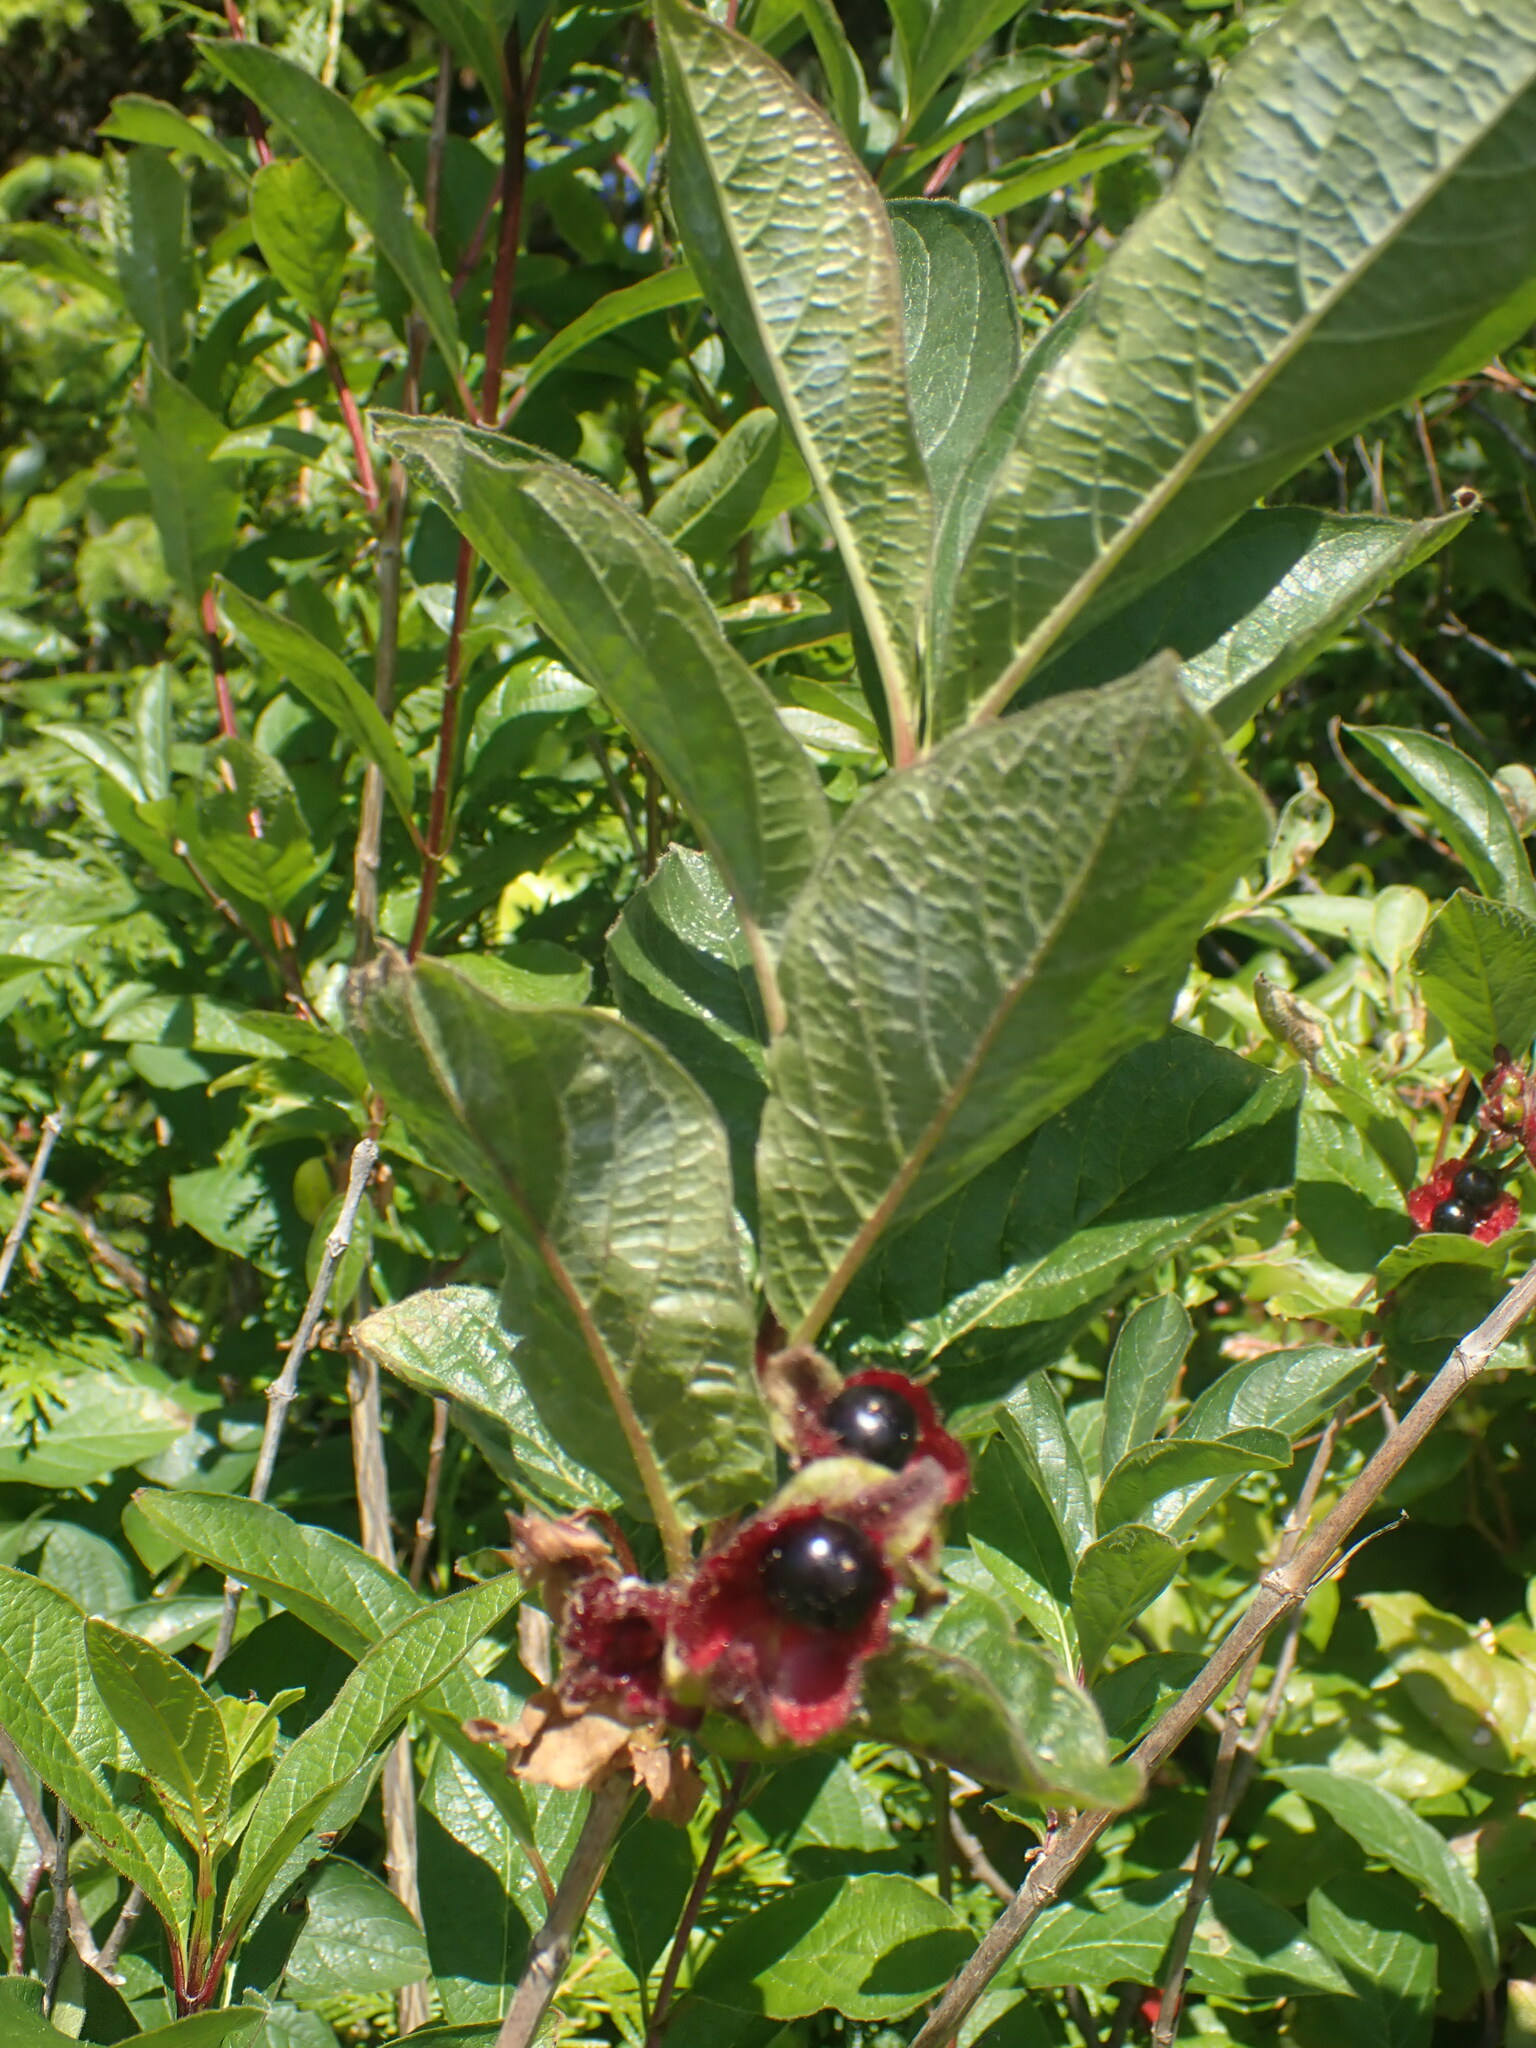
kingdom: Plantae
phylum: Tracheophyta
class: Magnoliopsida
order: Dipsacales
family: Caprifoliaceae
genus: Lonicera
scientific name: Lonicera involucrata
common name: Californian honeysuckle
